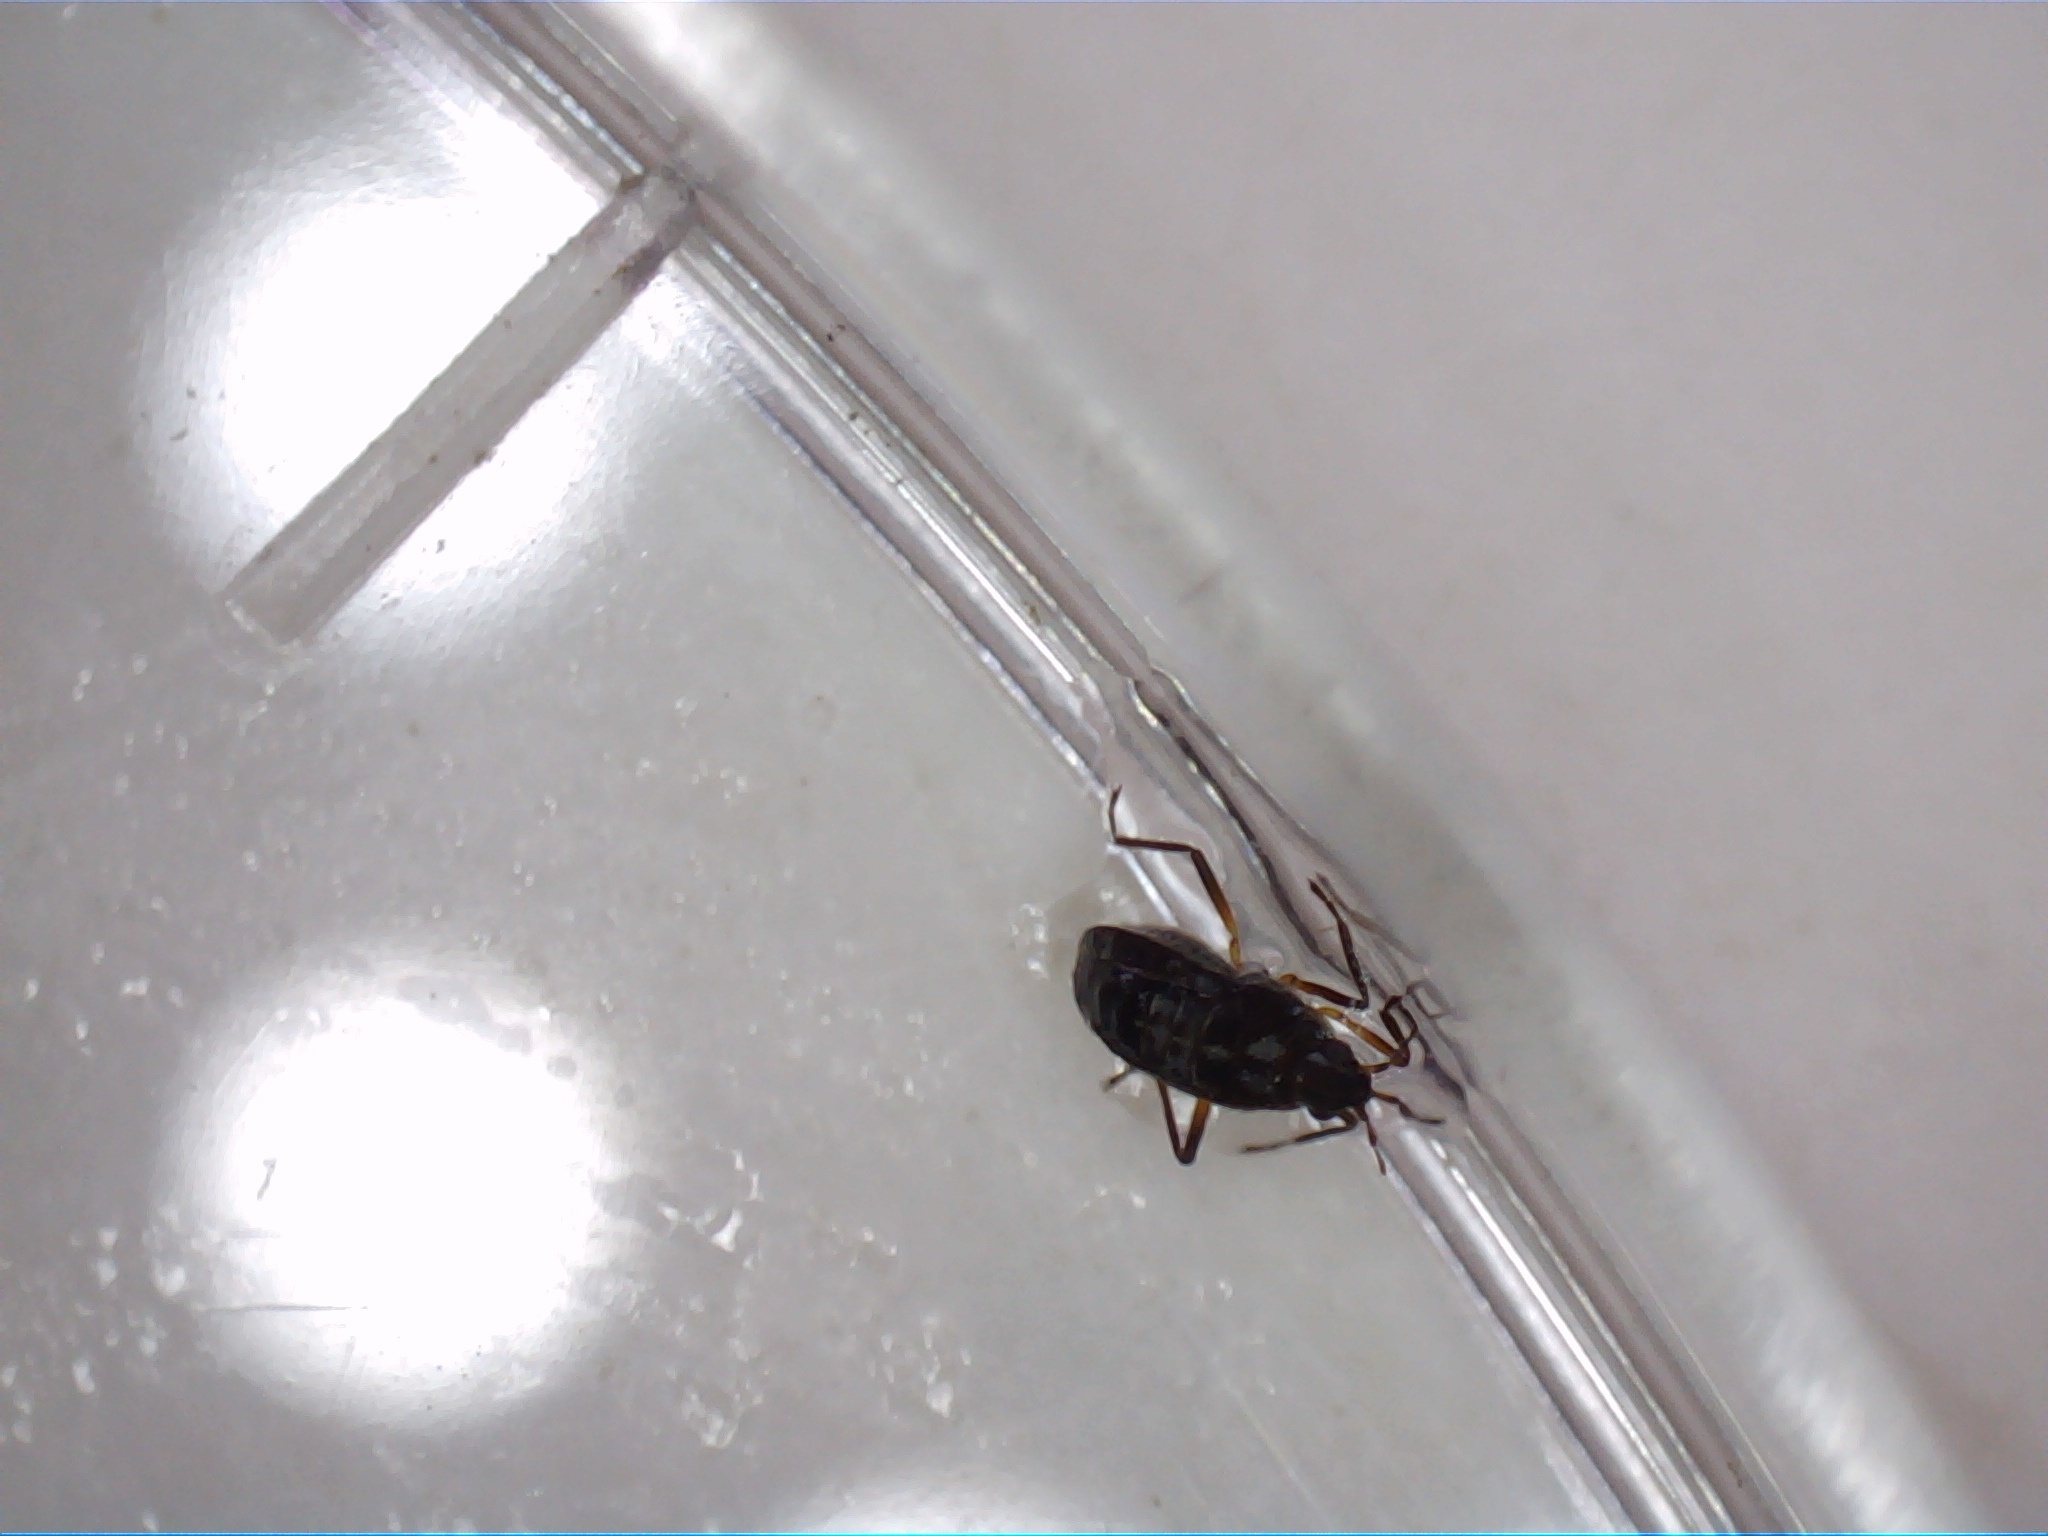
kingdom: Animalia
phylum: Arthropoda
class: Insecta
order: Hemiptera
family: Veliidae
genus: Microvelia
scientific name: Microvelia macgregori
